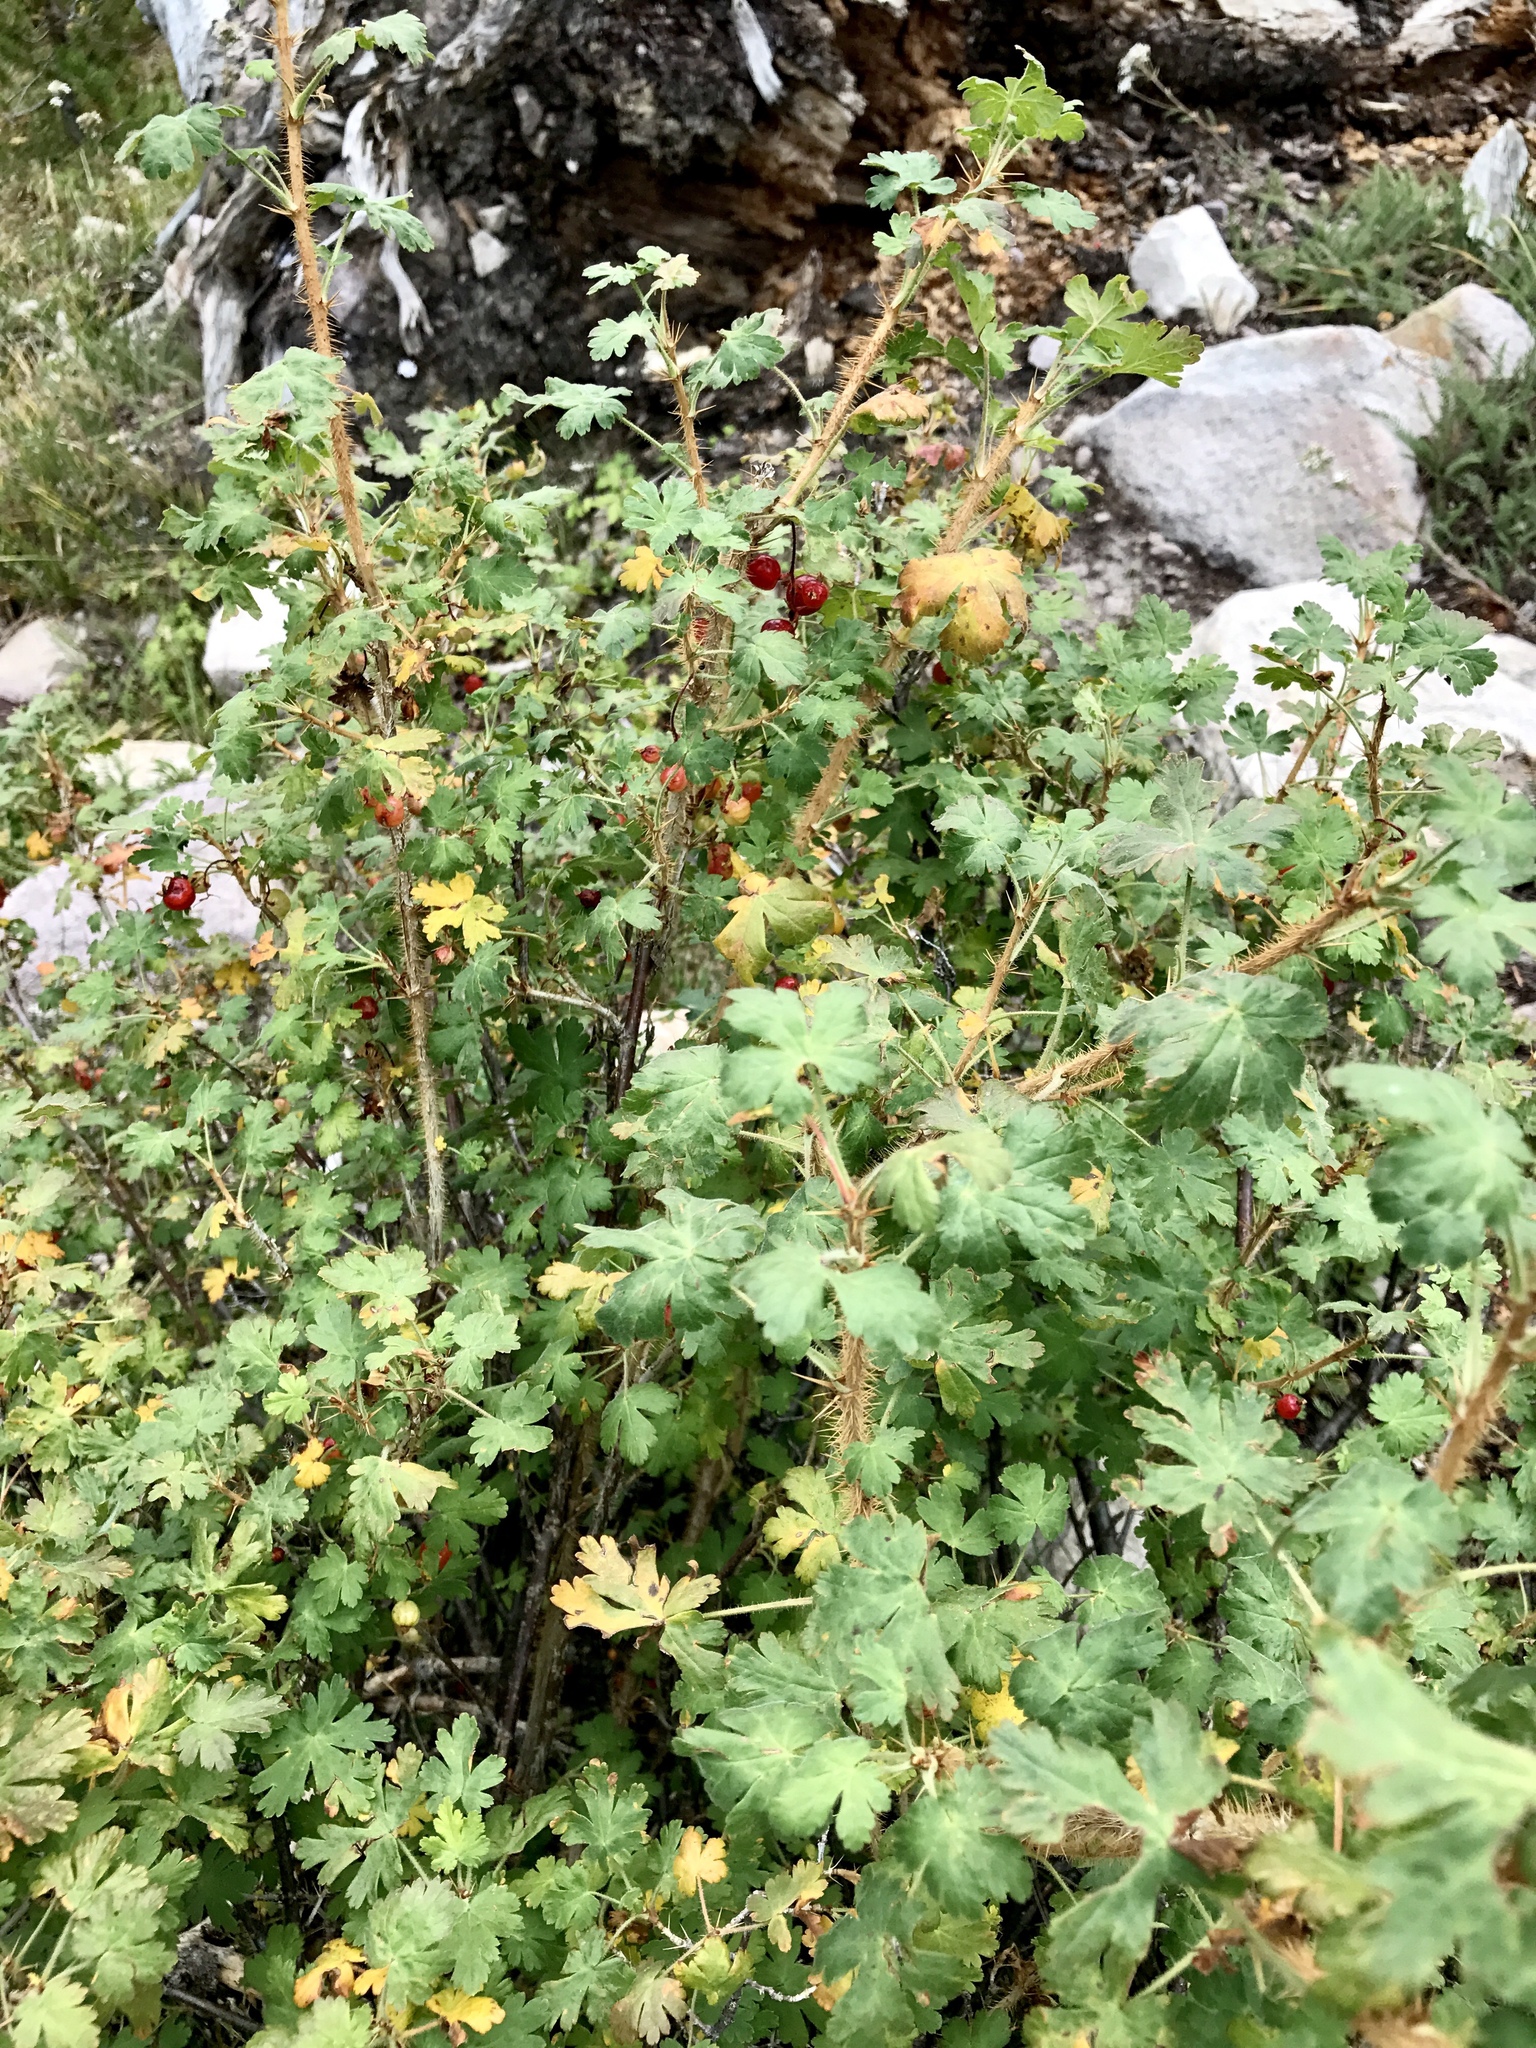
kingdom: Plantae
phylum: Tracheophyta
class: Magnoliopsida
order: Saxifragales
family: Grossulariaceae
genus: Ribes
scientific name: Ribes montigenum
